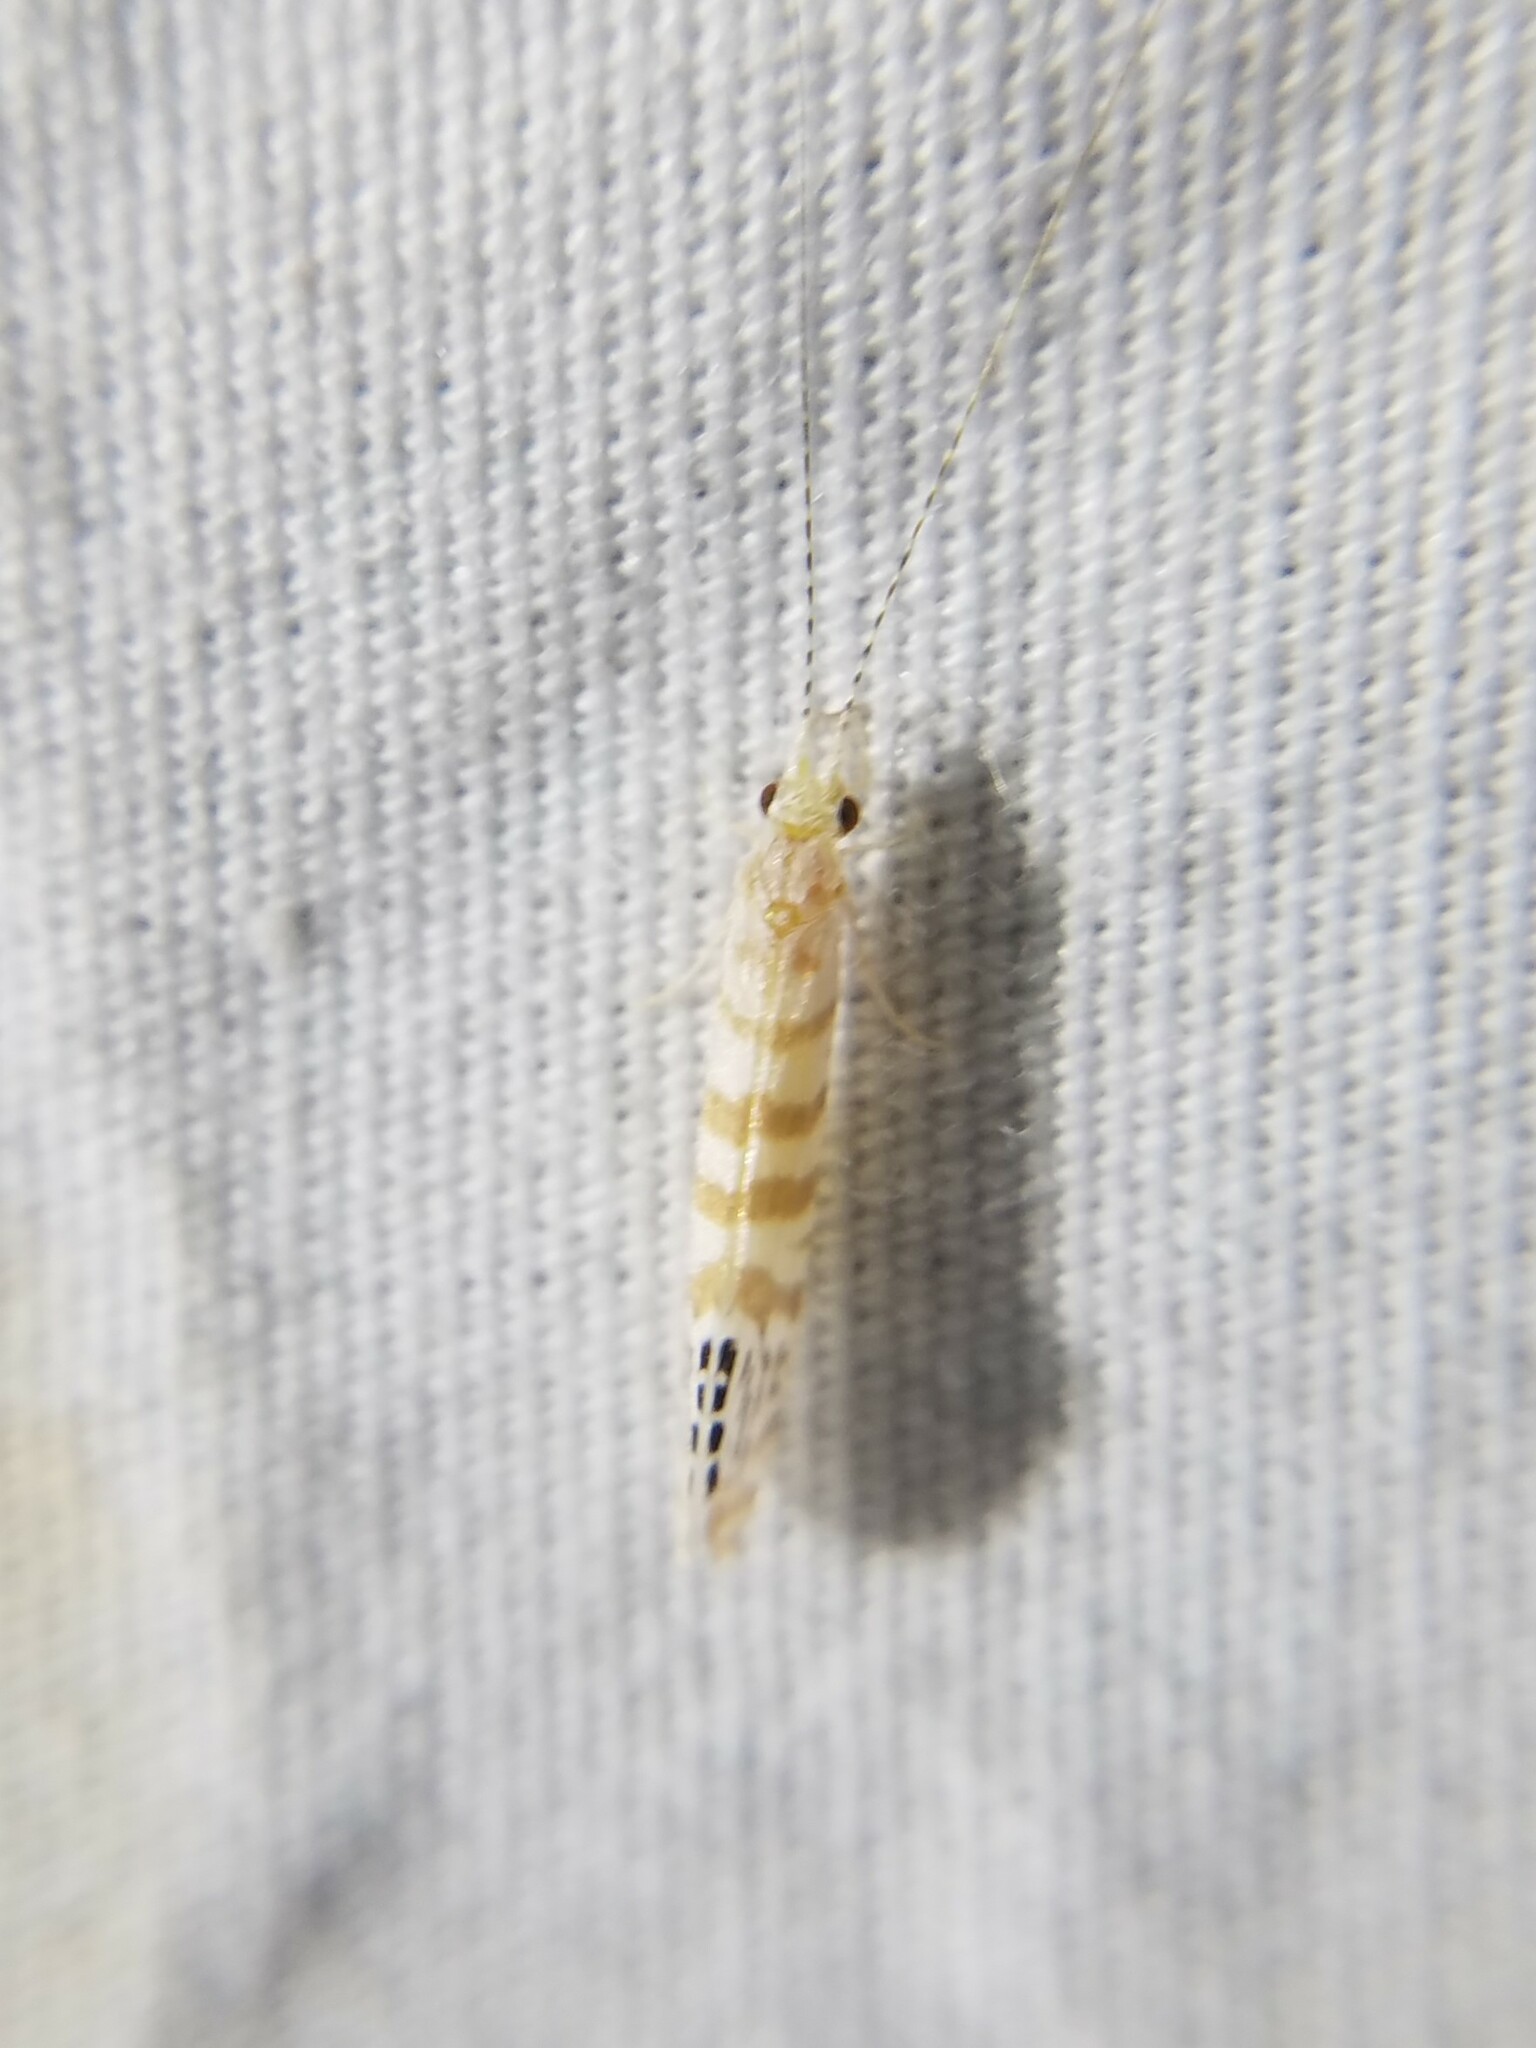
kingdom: Animalia
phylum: Arthropoda
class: Insecta
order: Trichoptera
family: Leptoceridae
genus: Nectopsyche
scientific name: Nectopsyche exquisita
